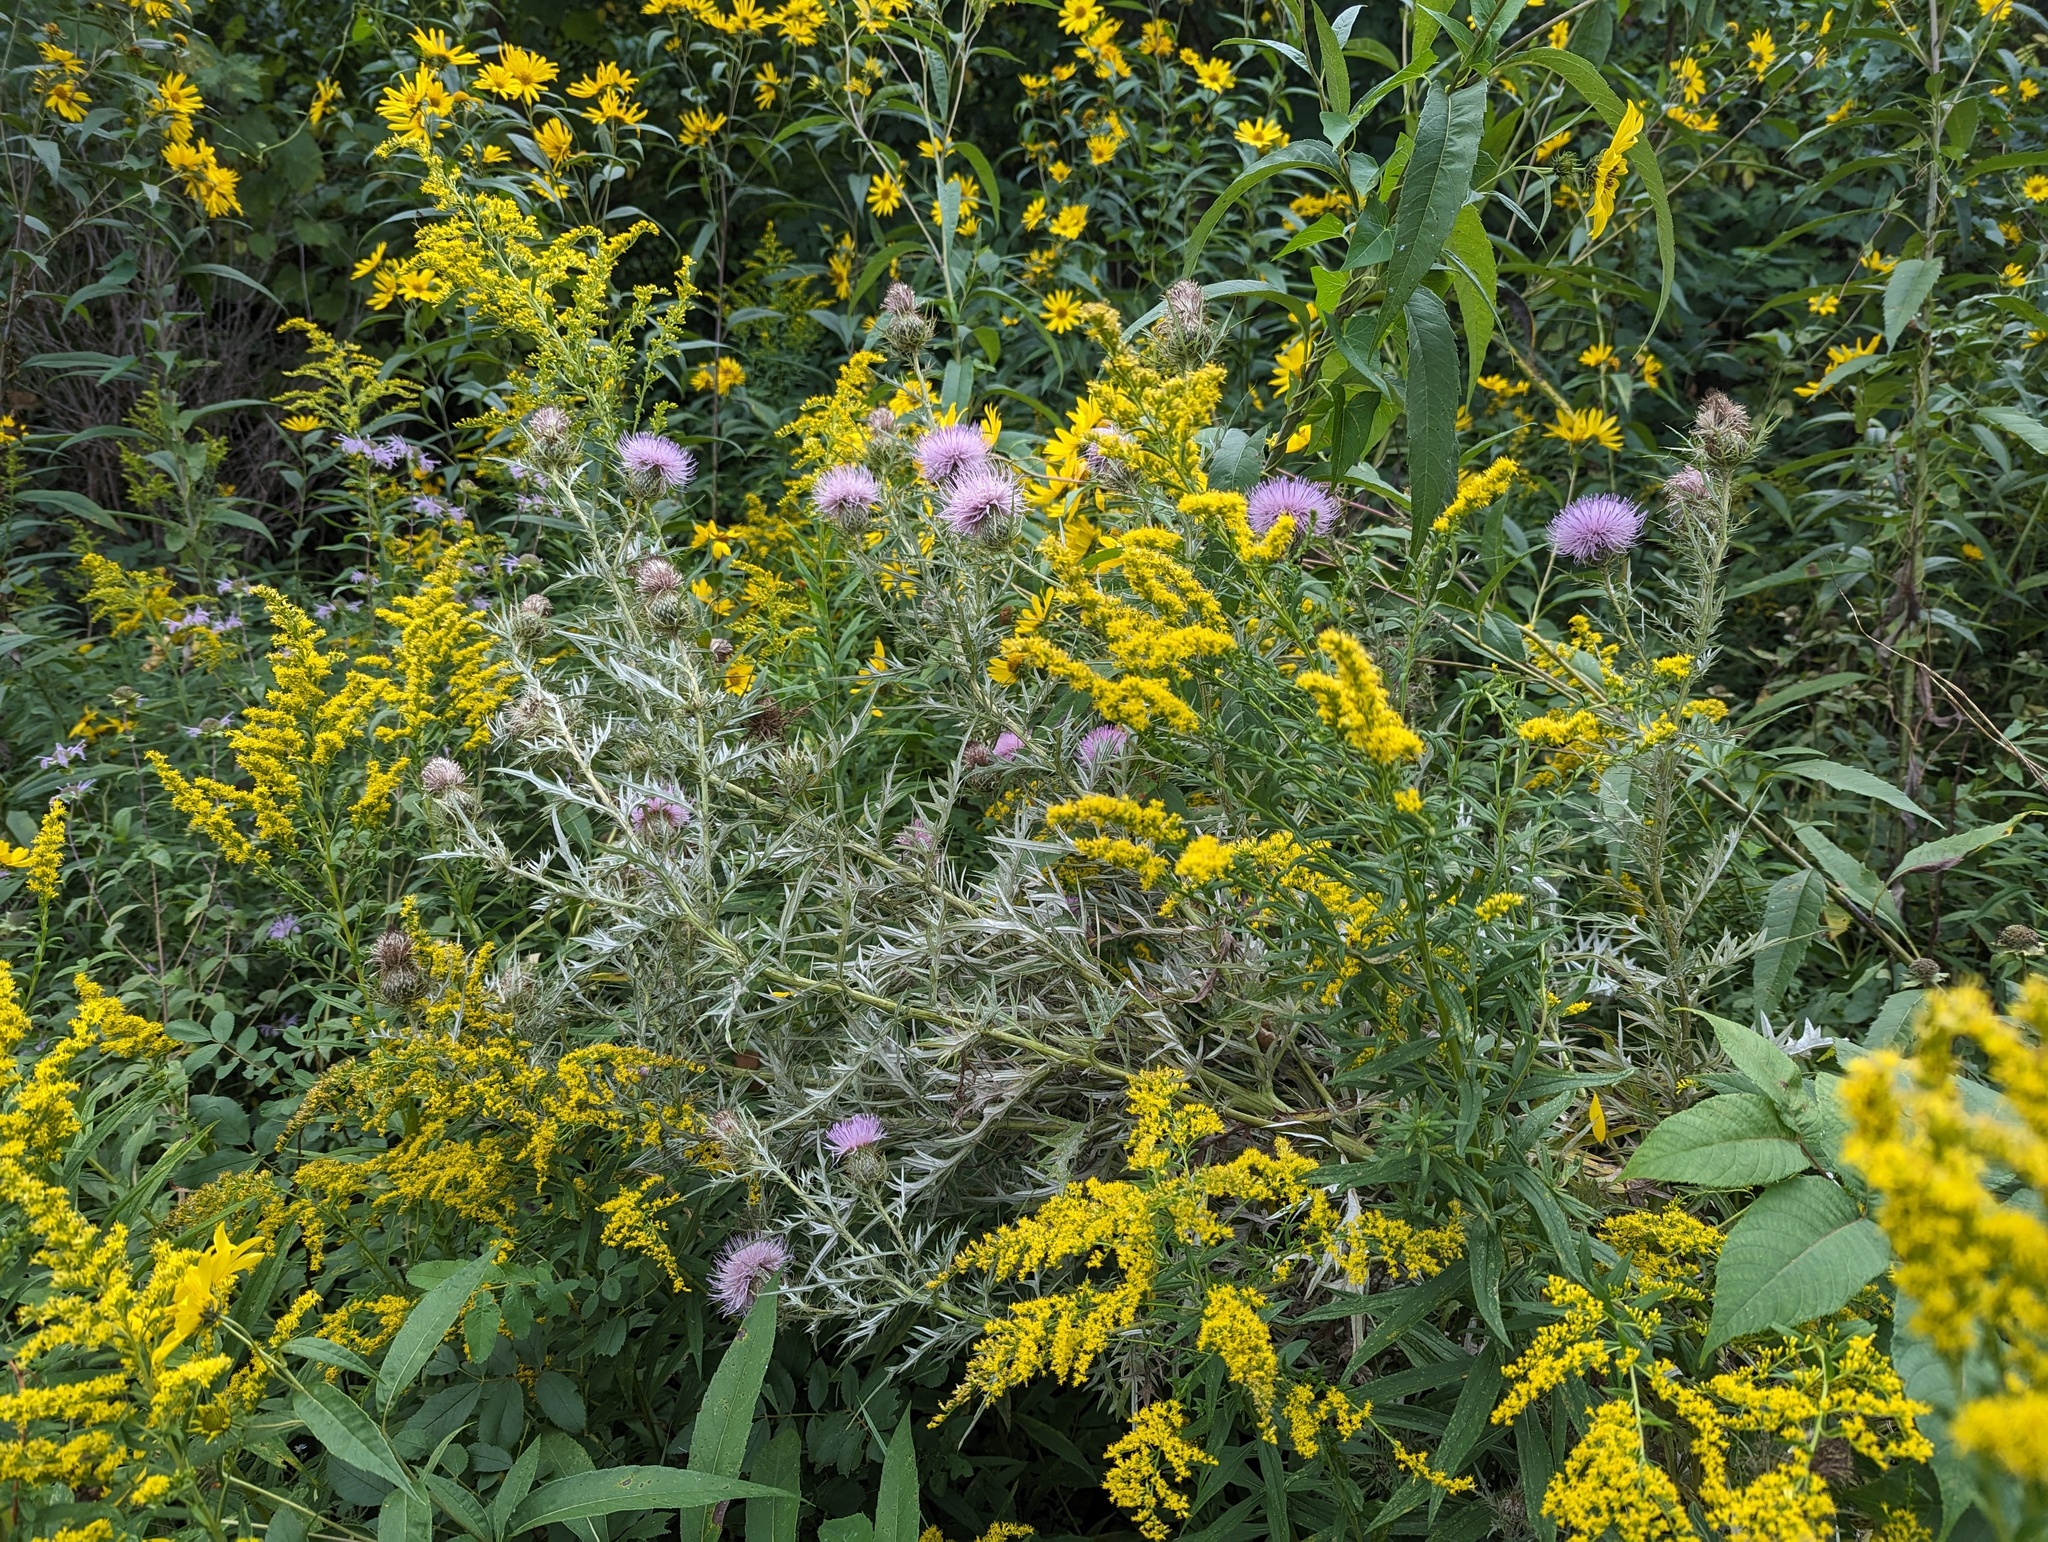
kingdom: Plantae
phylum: Tracheophyta
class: Magnoliopsida
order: Asterales
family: Asteraceae
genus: Cirsium
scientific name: Cirsium discolor
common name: Field thistle
